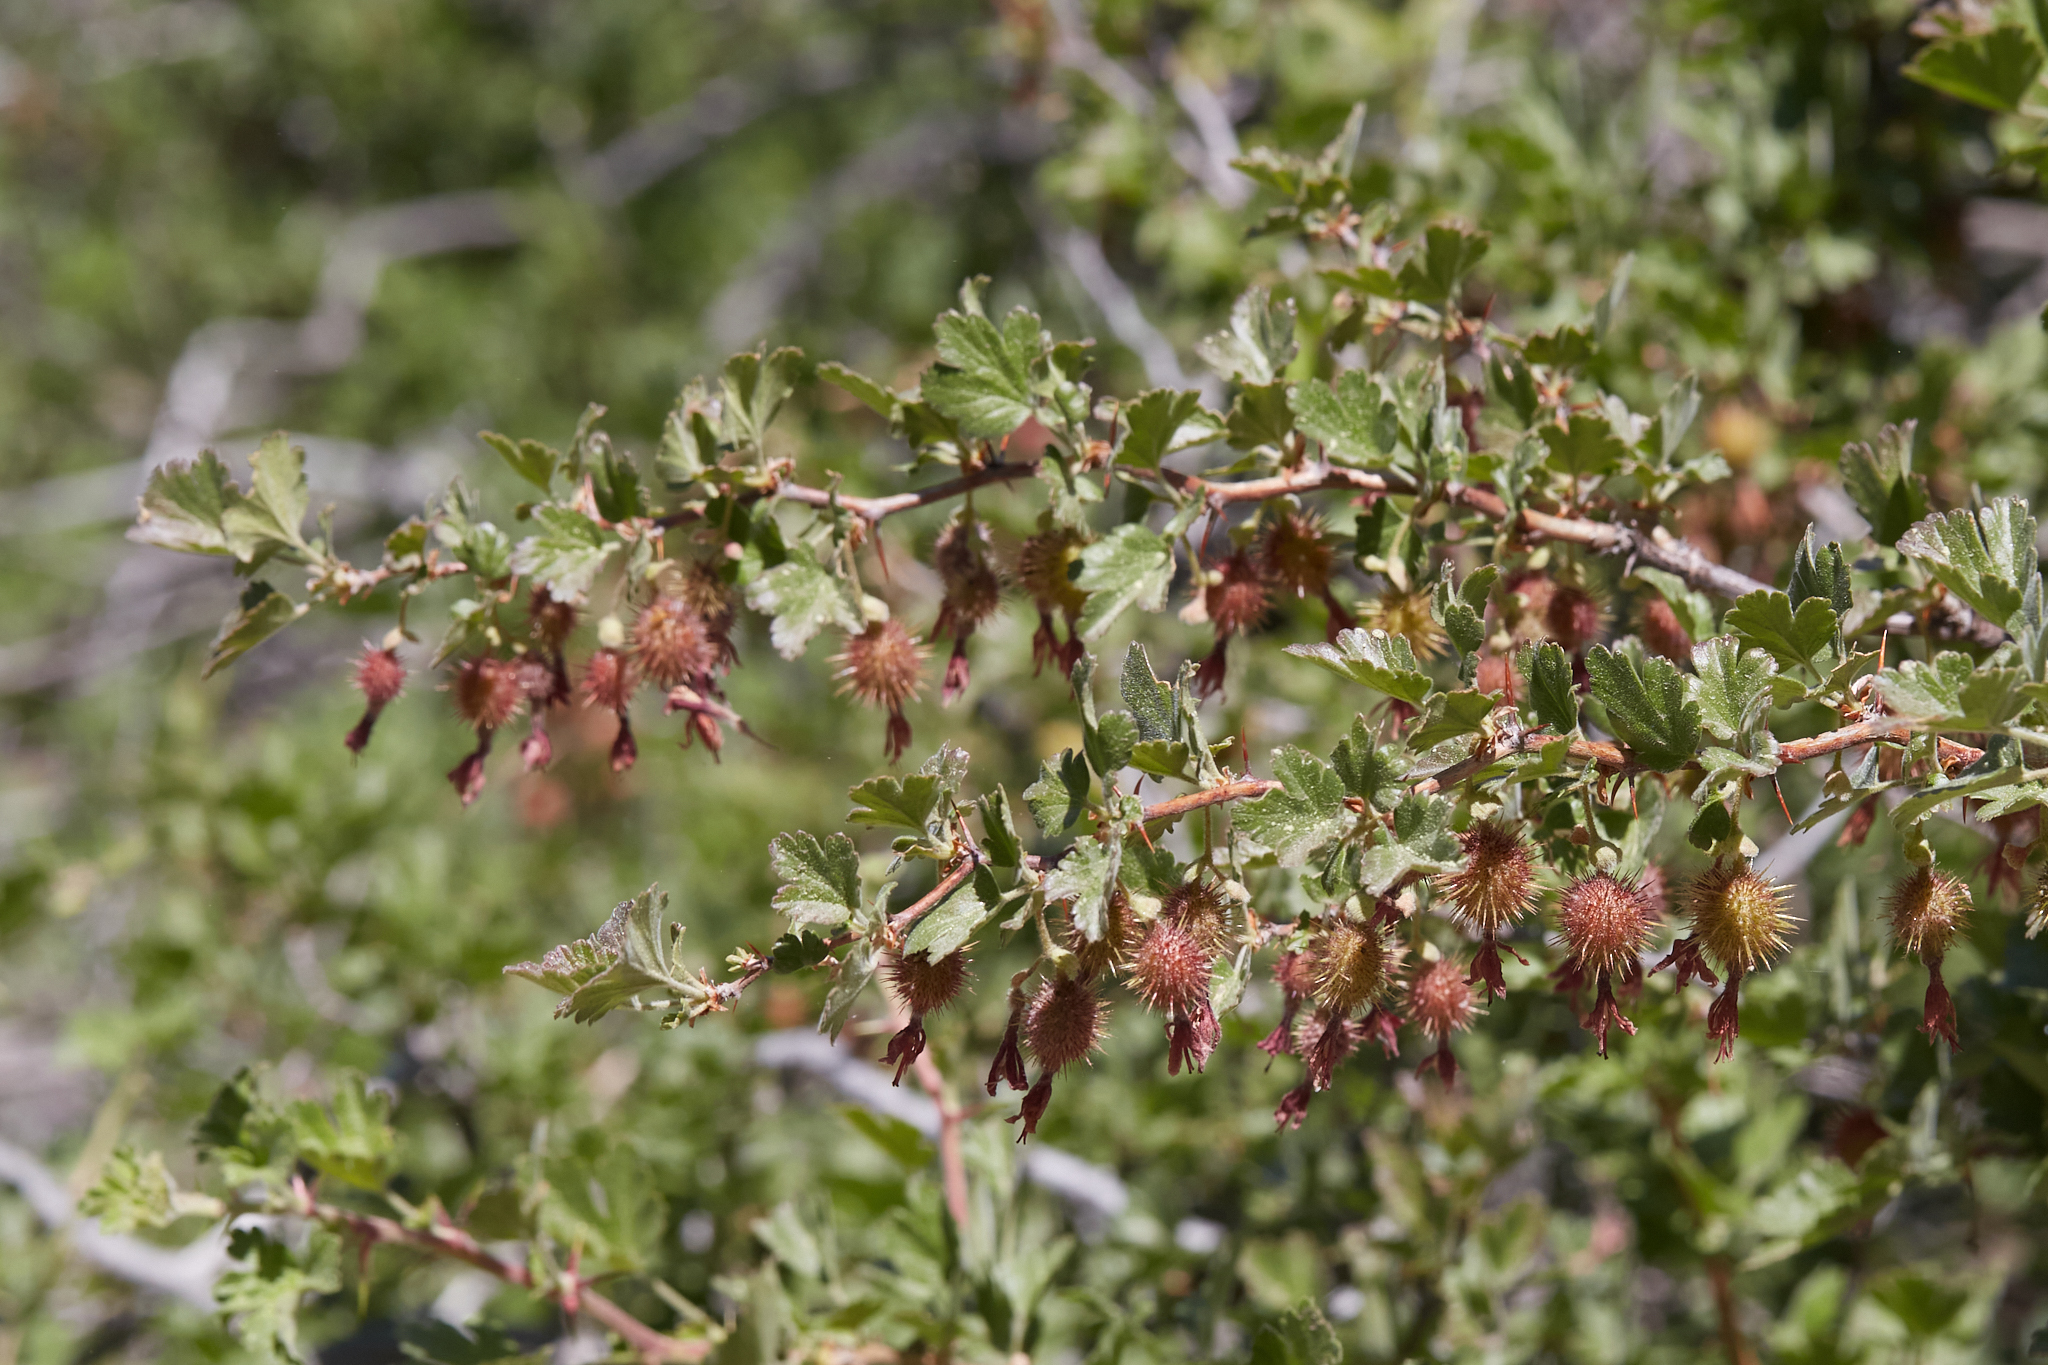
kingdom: Plantae
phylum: Tracheophyta
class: Magnoliopsida
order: Saxifragales
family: Grossulariaceae
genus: Ribes
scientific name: Ribes roezlii
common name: Sierra gooseberry
